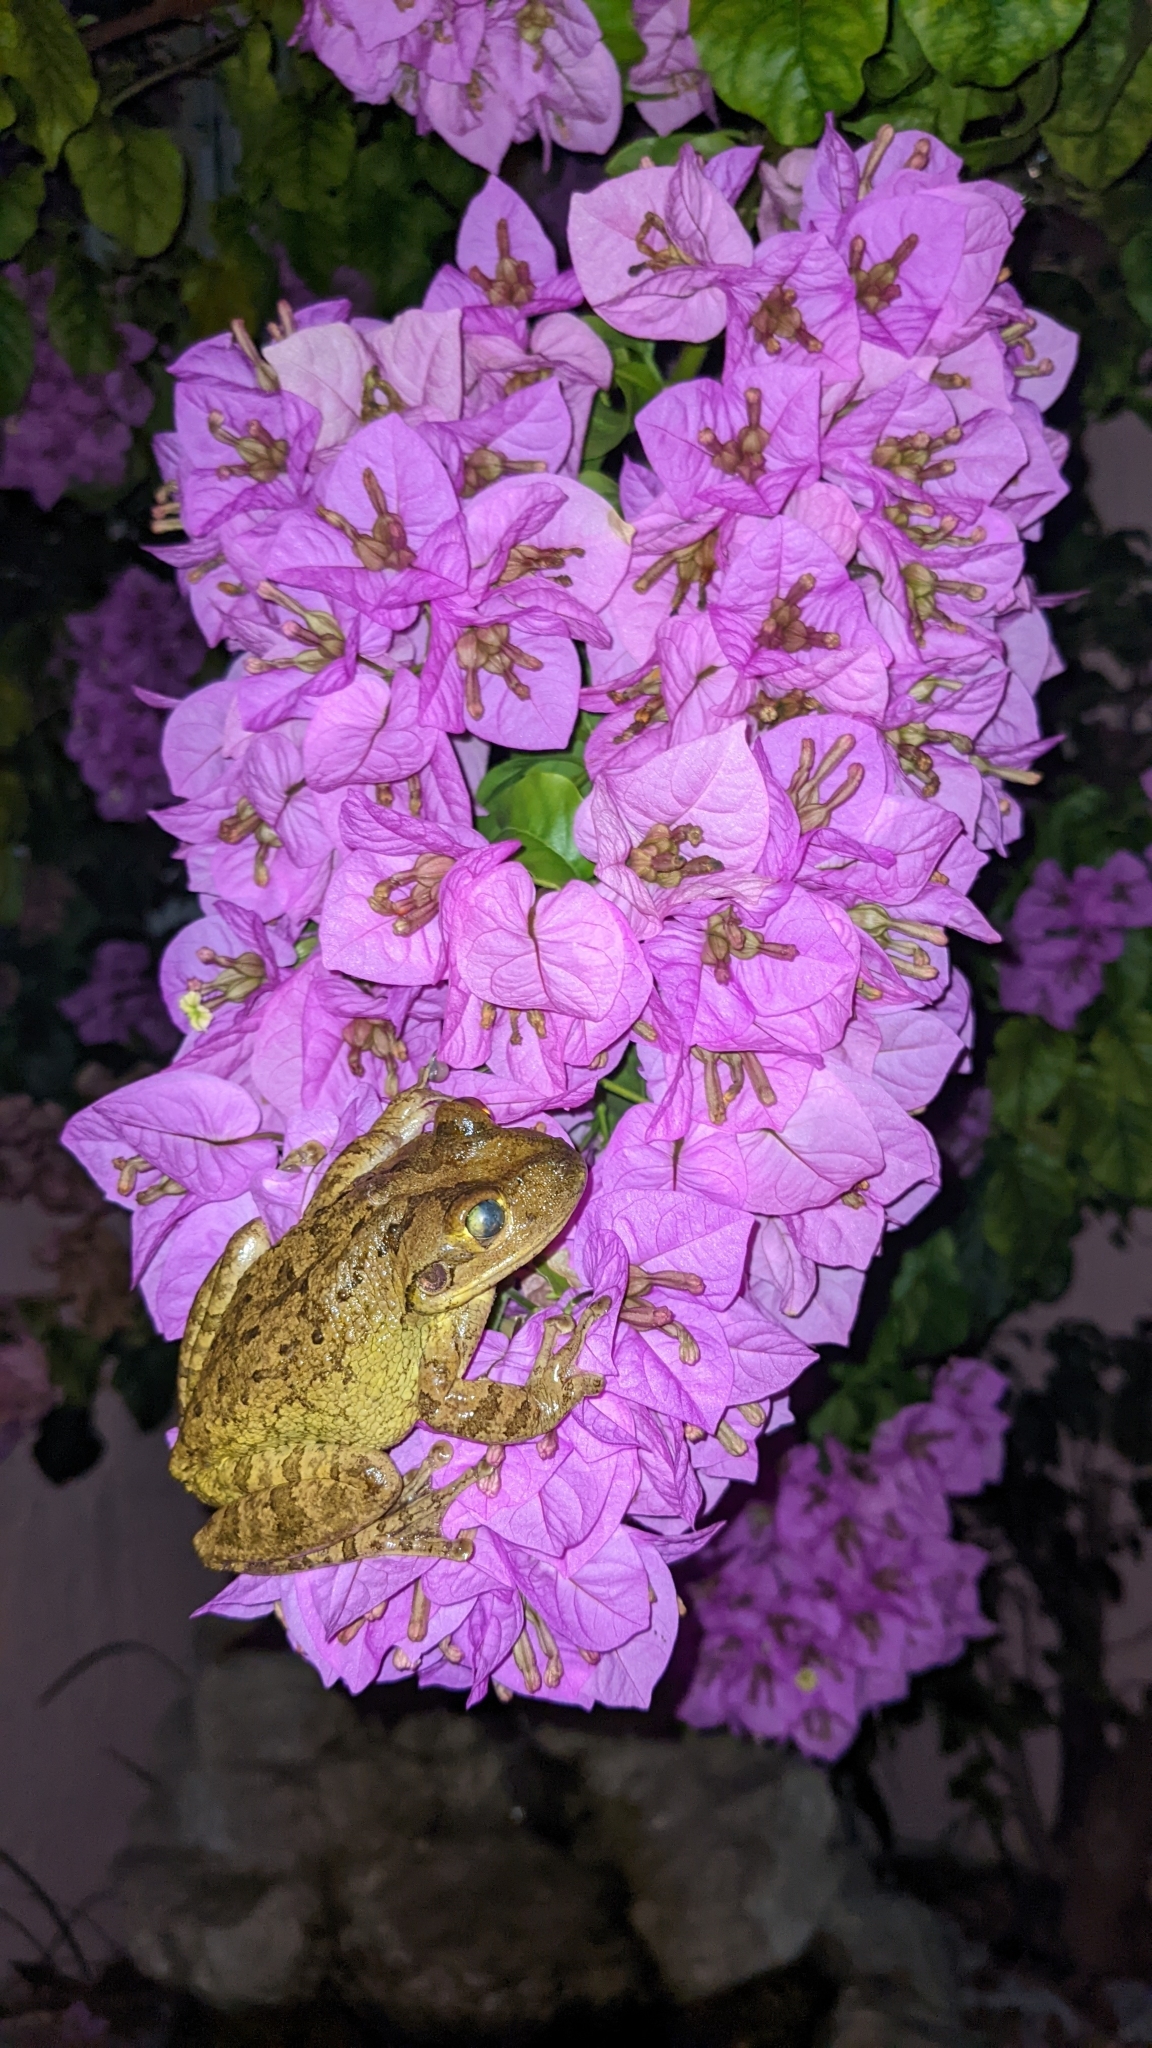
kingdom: Animalia
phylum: Chordata
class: Amphibia
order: Anura
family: Hylidae
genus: Osteopilus
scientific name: Osteopilus septentrionalis
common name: Cuban treefrog
